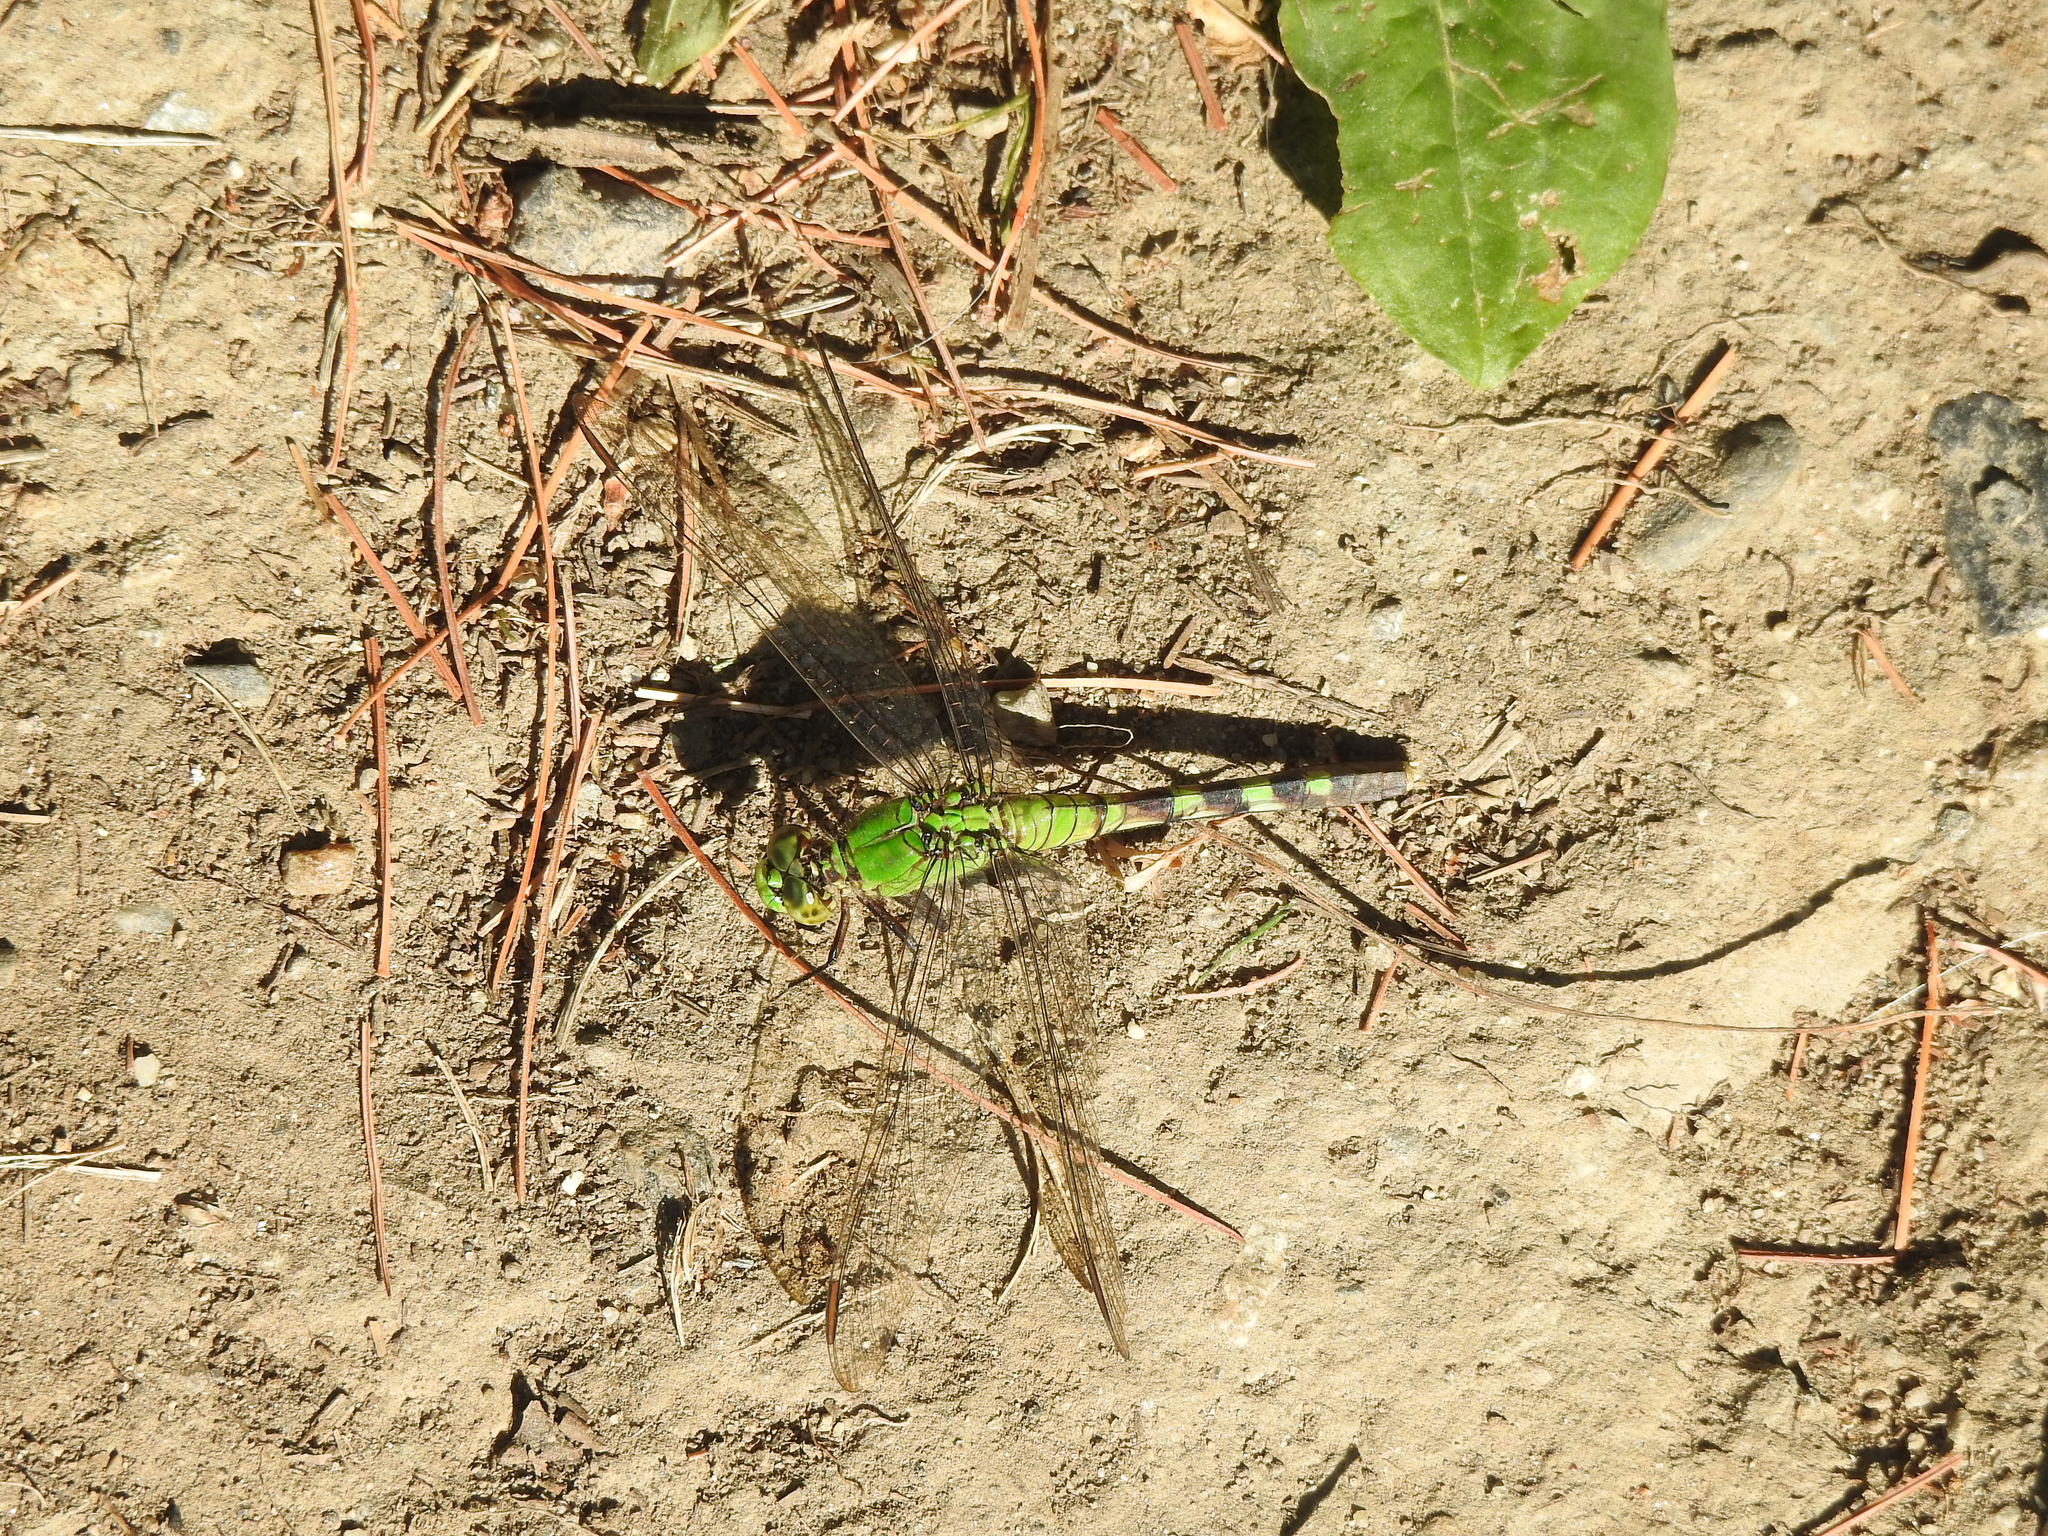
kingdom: Animalia
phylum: Arthropoda
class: Insecta
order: Odonata
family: Libellulidae
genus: Erythemis
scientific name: Erythemis simplicicollis
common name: Eastern pondhawk
